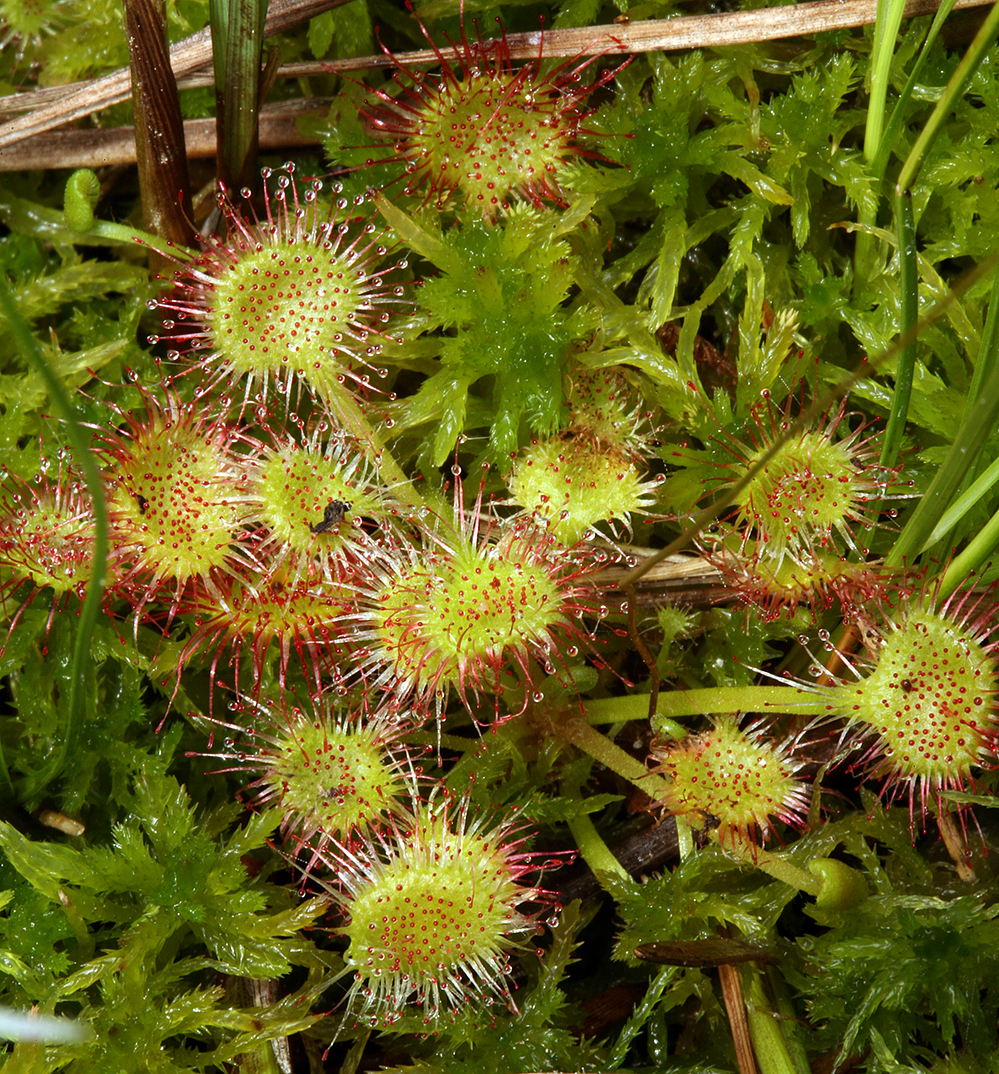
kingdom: Plantae
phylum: Tracheophyta
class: Magnoliopsida
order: Caryophyllales
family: Droseraceae
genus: Drosera
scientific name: Drosera rotundifolia
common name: Round-leaved sundew
